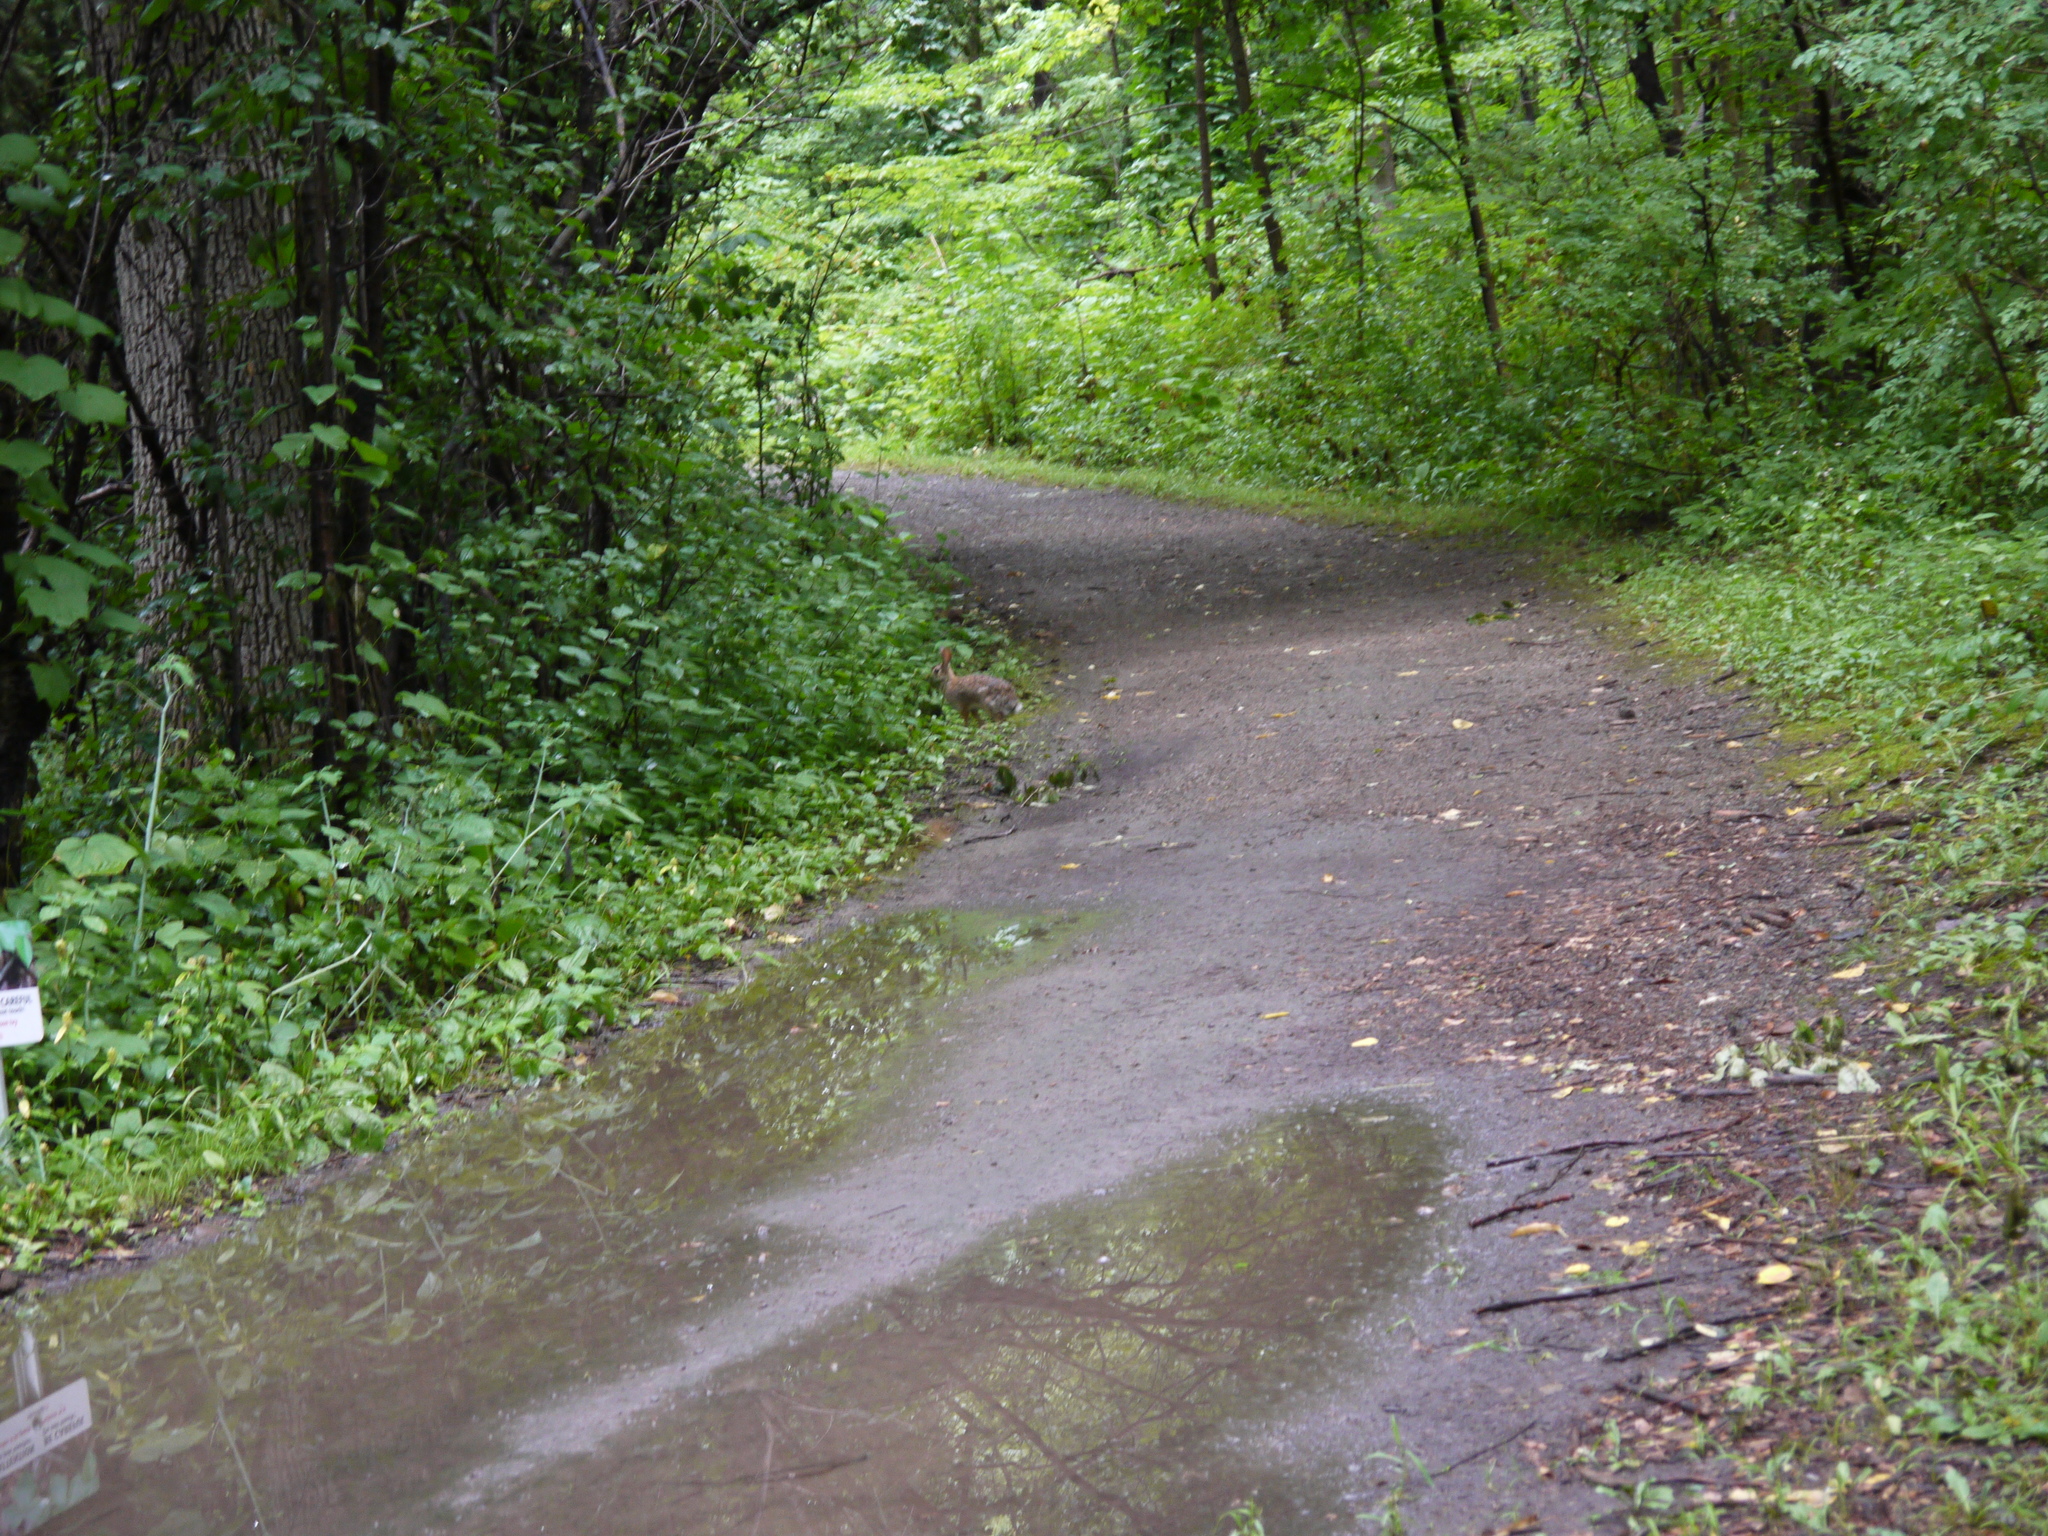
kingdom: Animalia
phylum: Chordata
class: Mammalia
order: Lagomorpha
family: Leporidae
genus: Sylvilagus
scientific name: Sylvilagus floridanus
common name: Eastern cottontail
